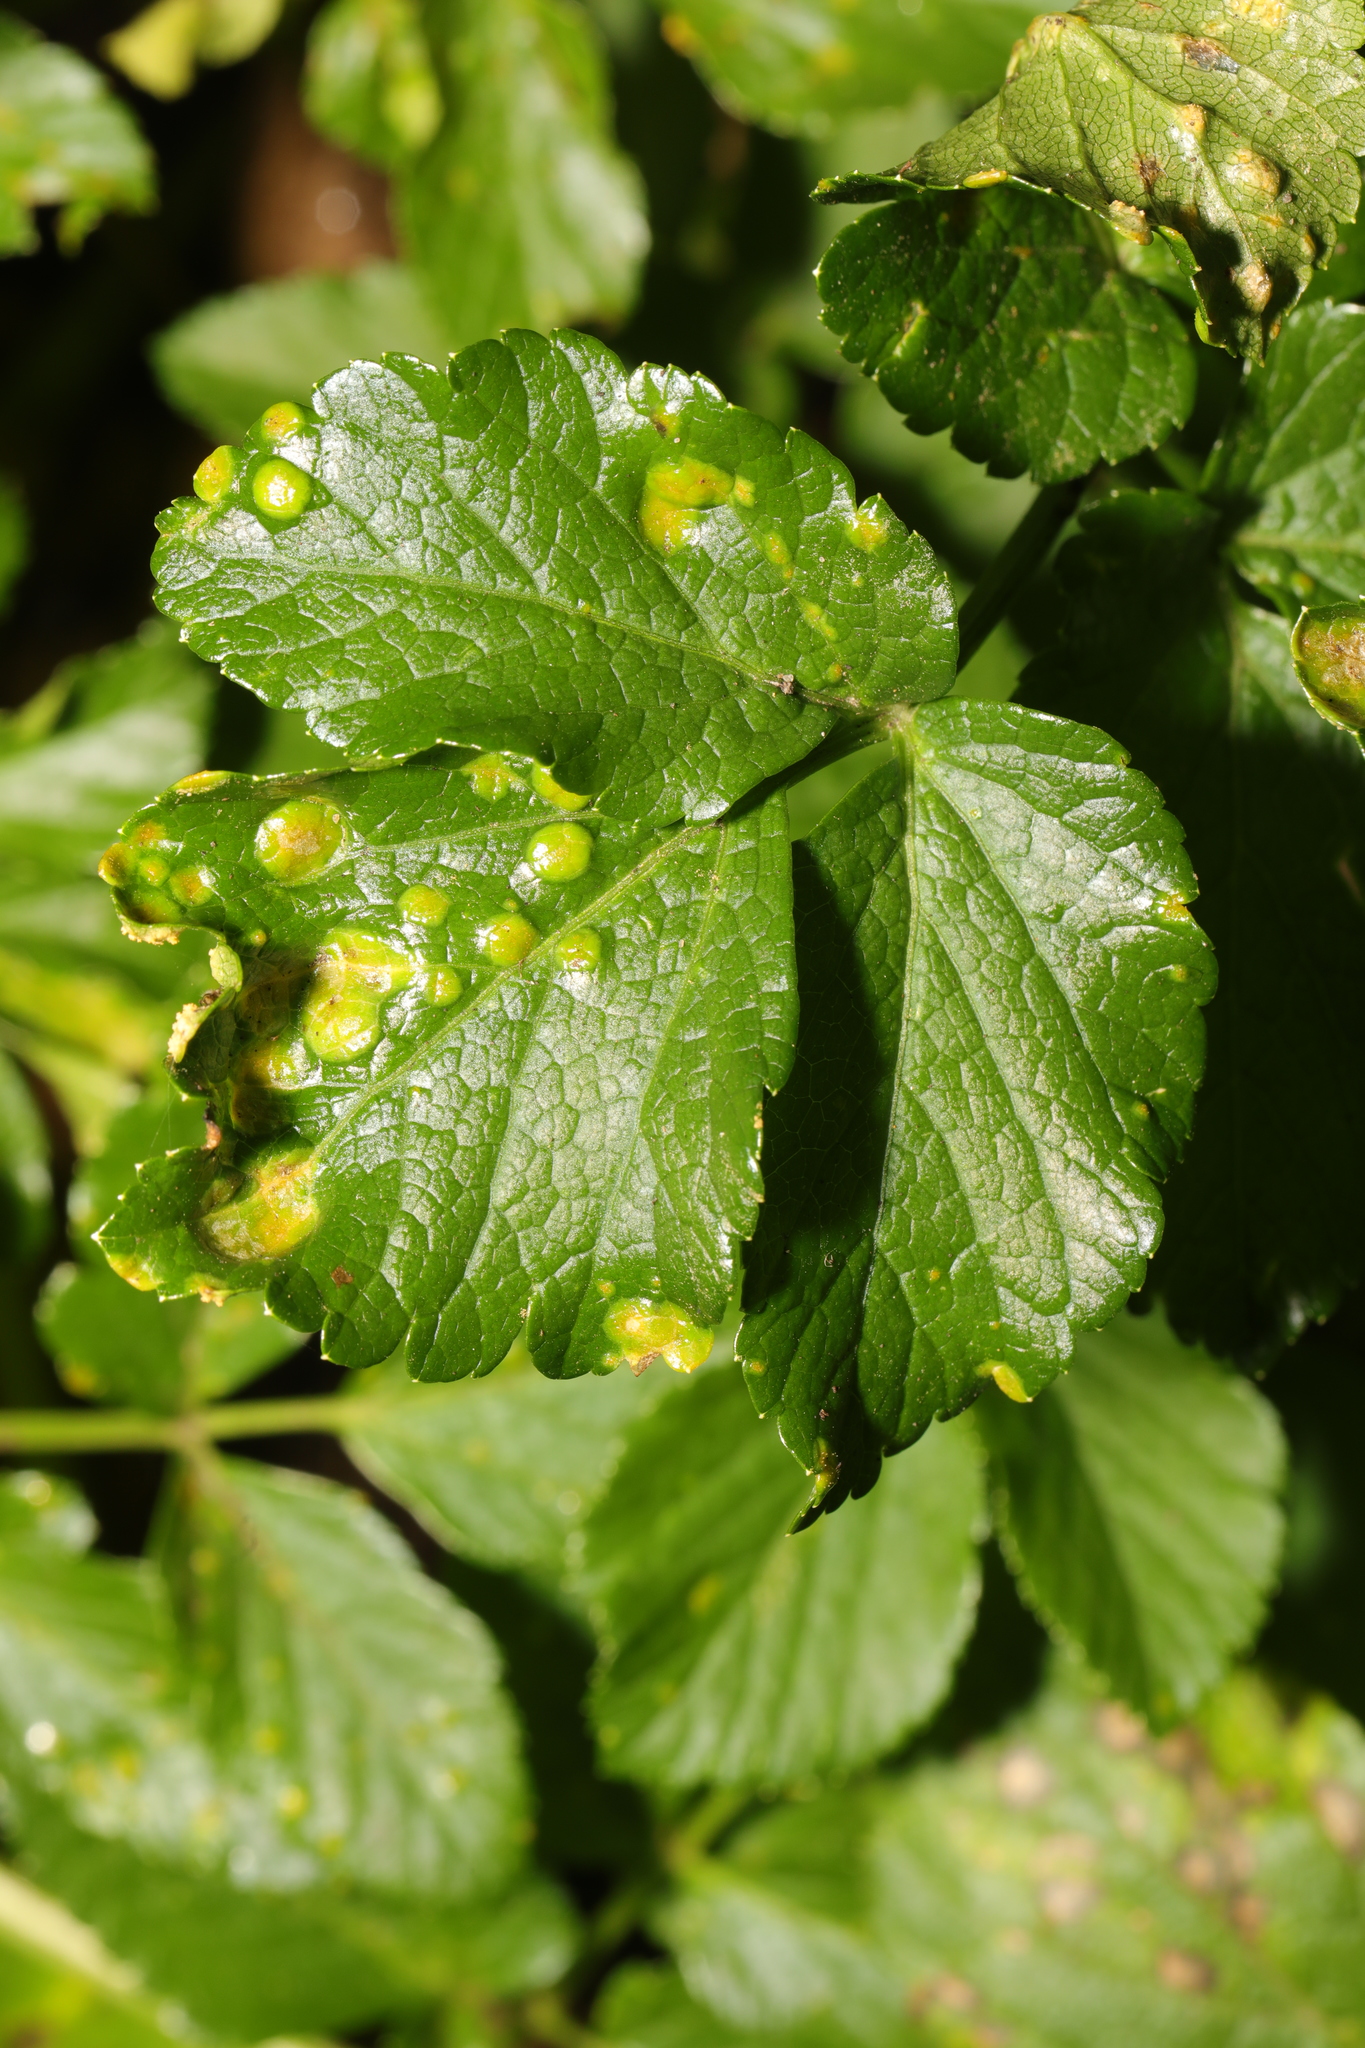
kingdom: Plantae
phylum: Tracheophyta
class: Magnoliopsida
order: Apiales
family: Apiaceae
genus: Smyrnium
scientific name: Smyrnium olusatrum
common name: Alexanders
